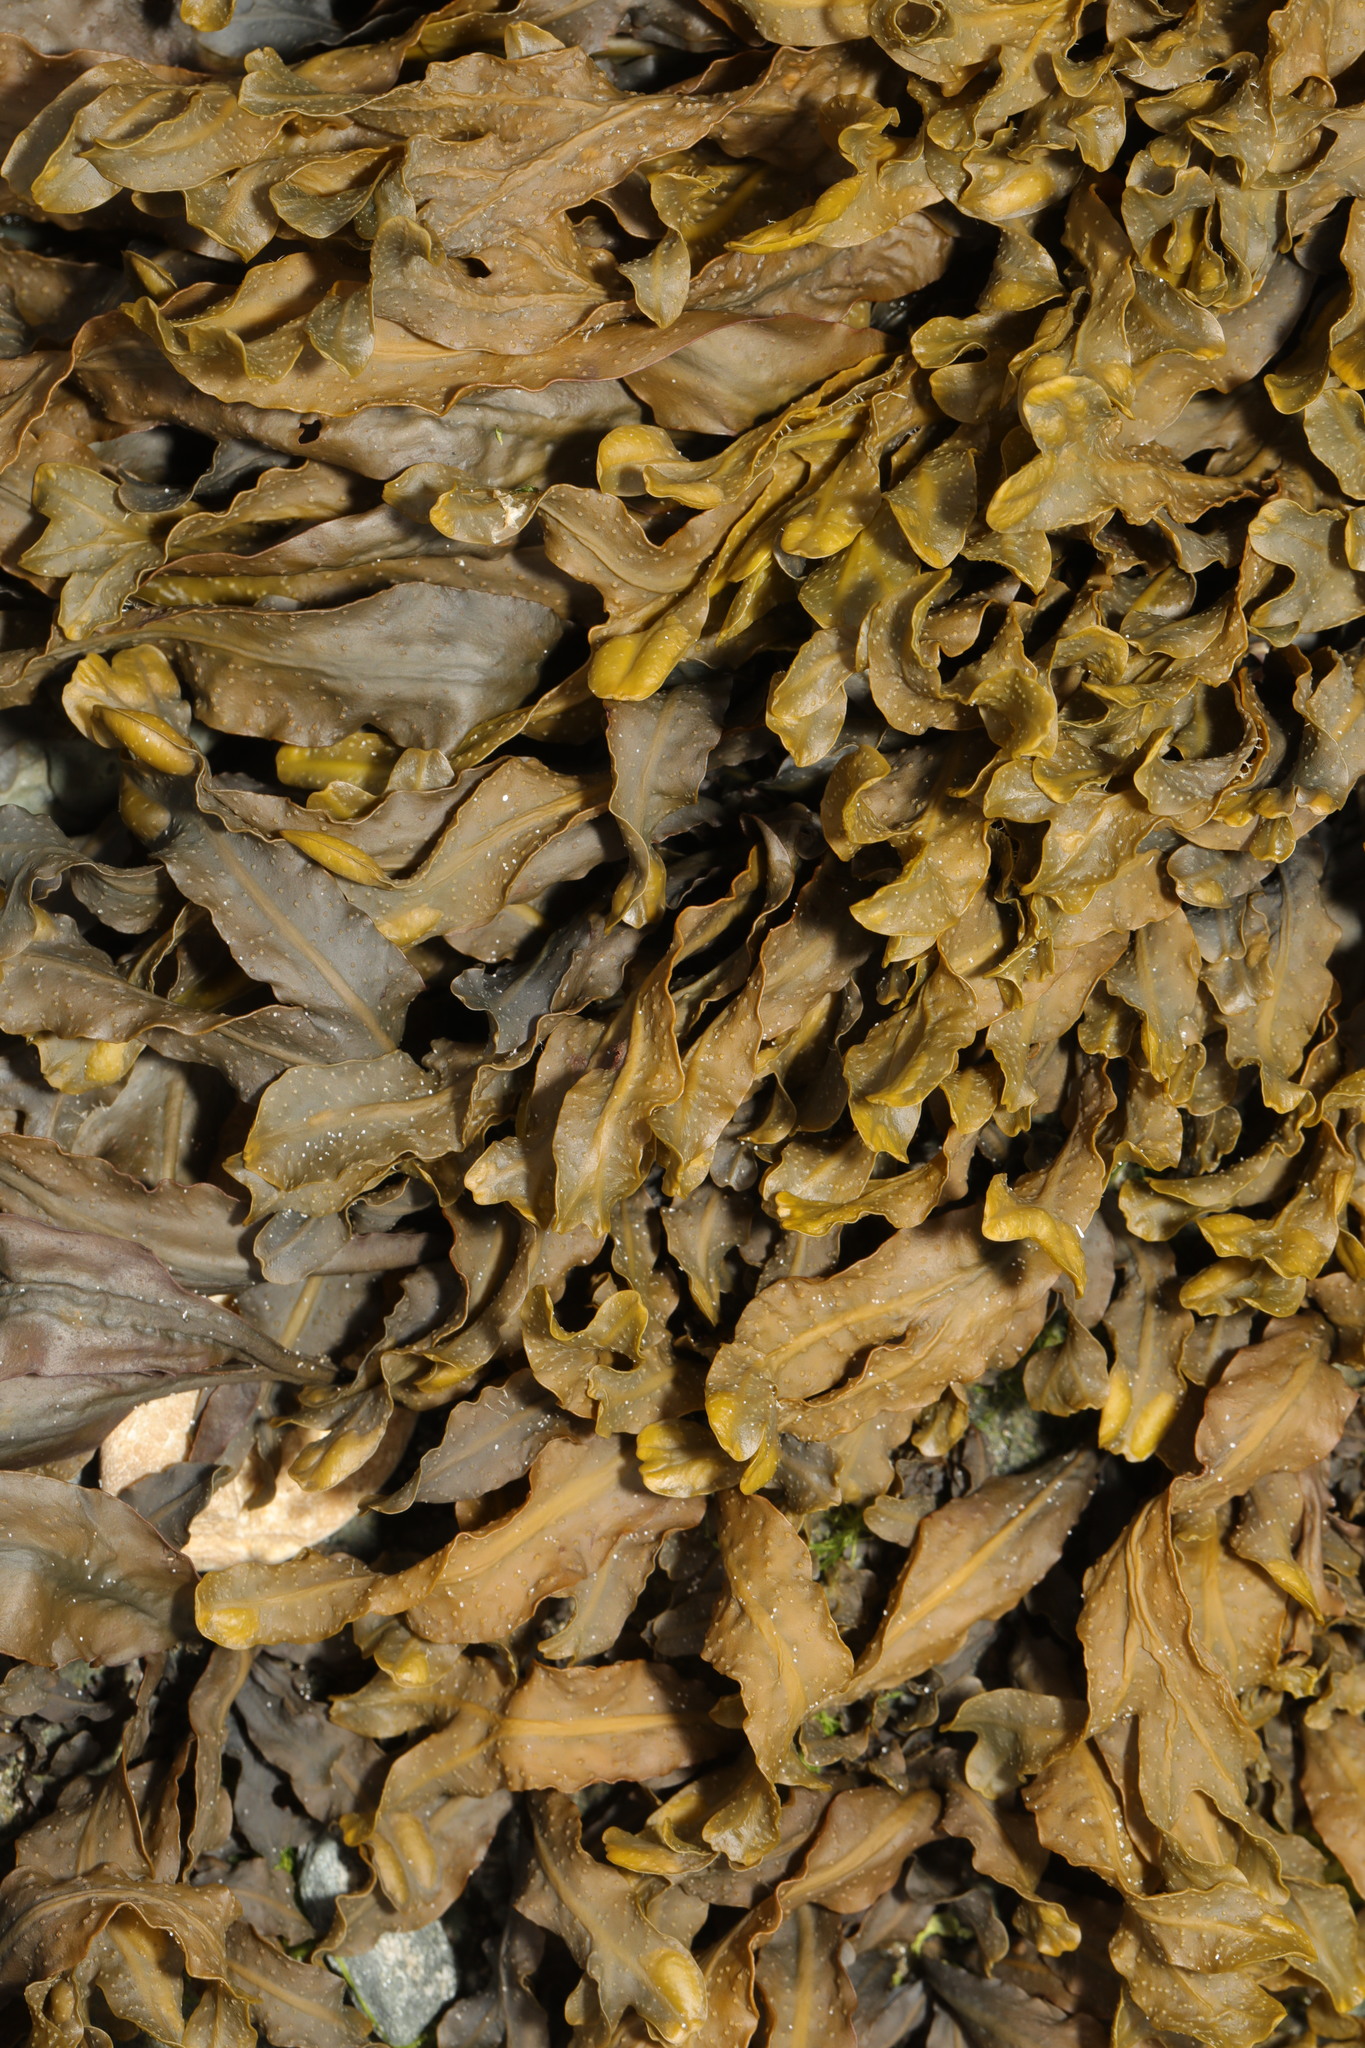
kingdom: Chromista
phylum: Ochrophyta
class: Phaeophyceae
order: Fucales
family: Fucaceae
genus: Fucus
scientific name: Fucus spiralis
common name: Spiral wrack
